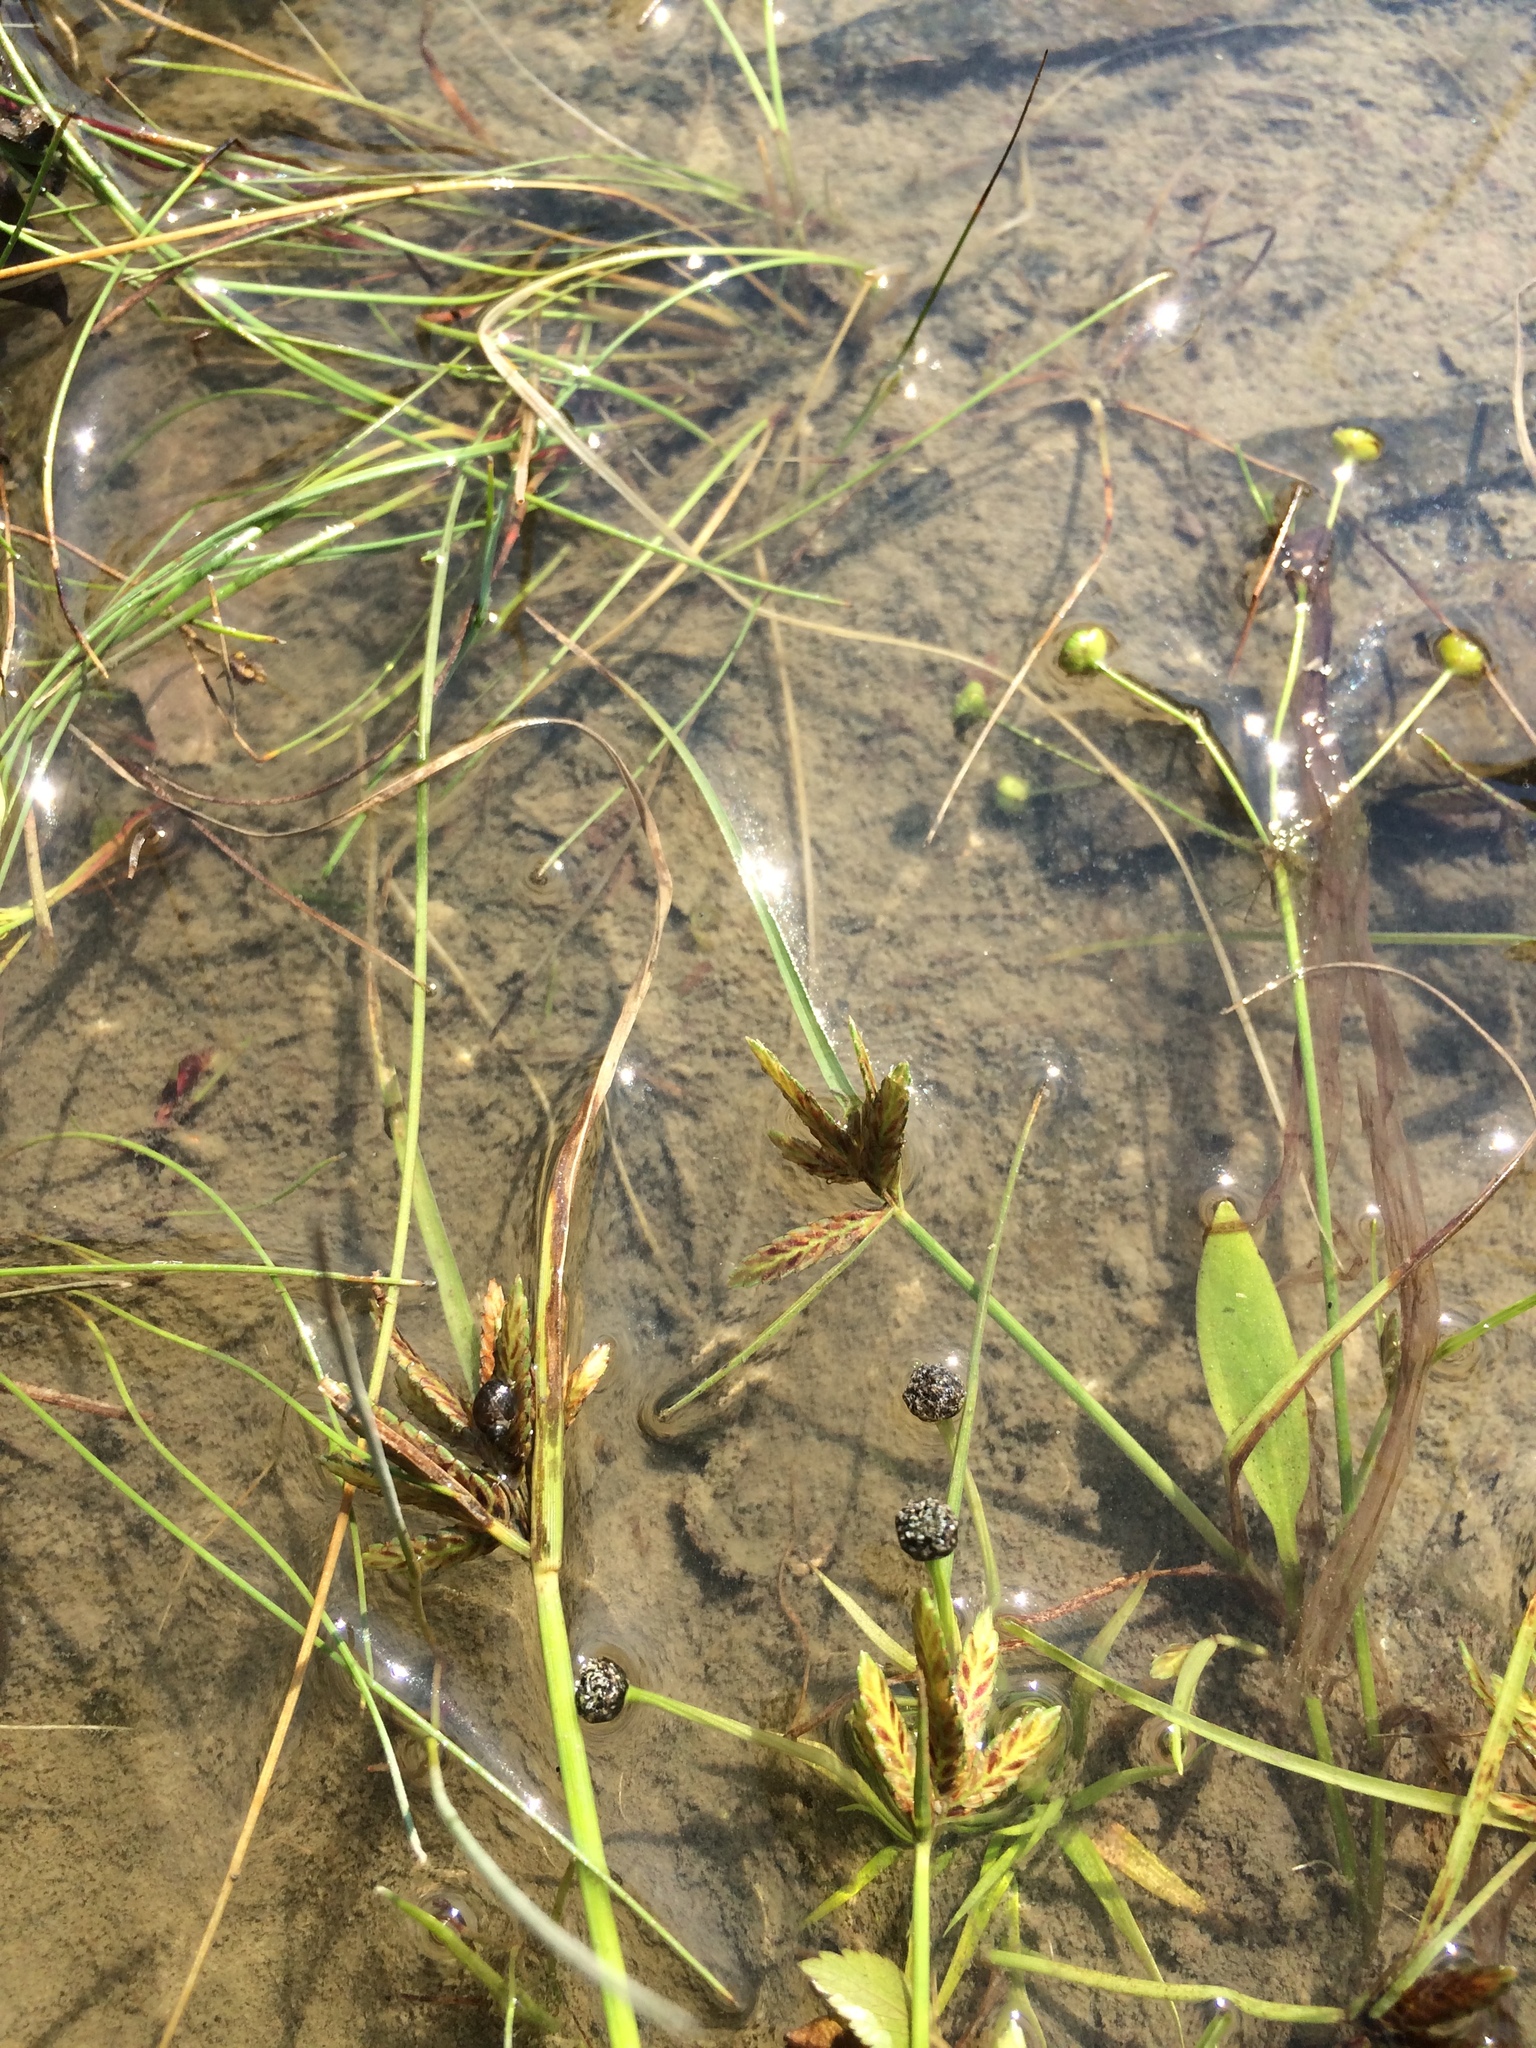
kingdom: Plantae
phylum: Tracheophyta
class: Liliopsida
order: Poales
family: Cyperaceae
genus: Cyperus
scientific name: Cyperus bipartitus
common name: Brook flatsedge
